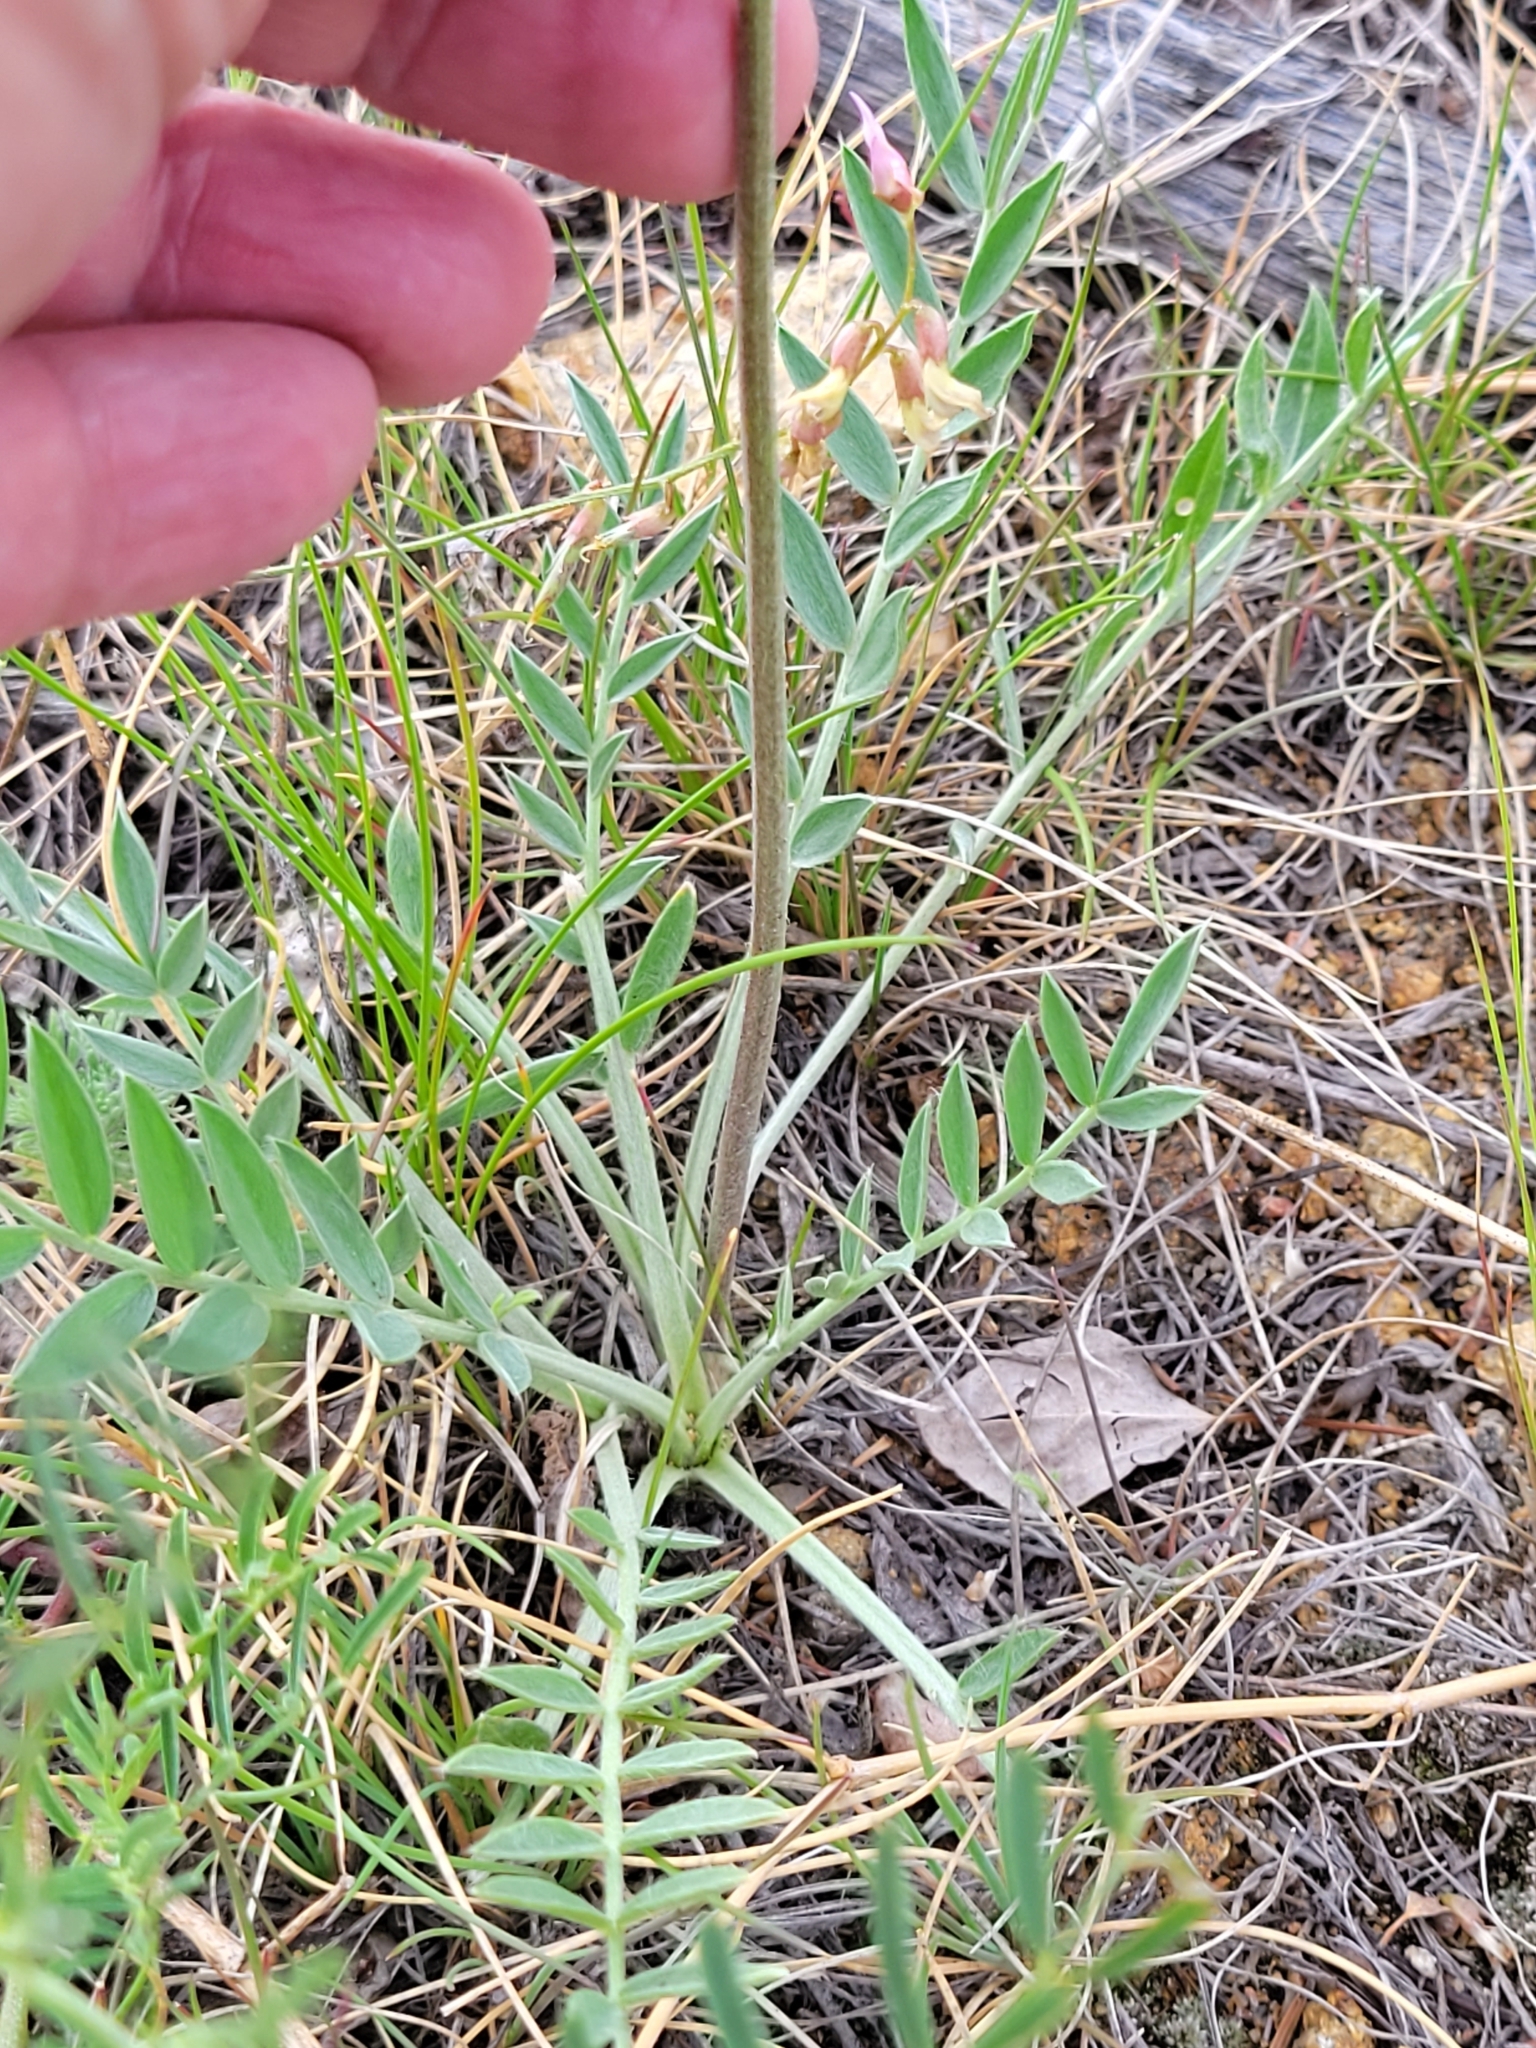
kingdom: Plantae
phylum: Tracheophyta
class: Magnoliopsida
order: Fabales
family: Fabaceae
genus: Oxytropis
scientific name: Oxytropis lambertii
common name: Purple locoweed
